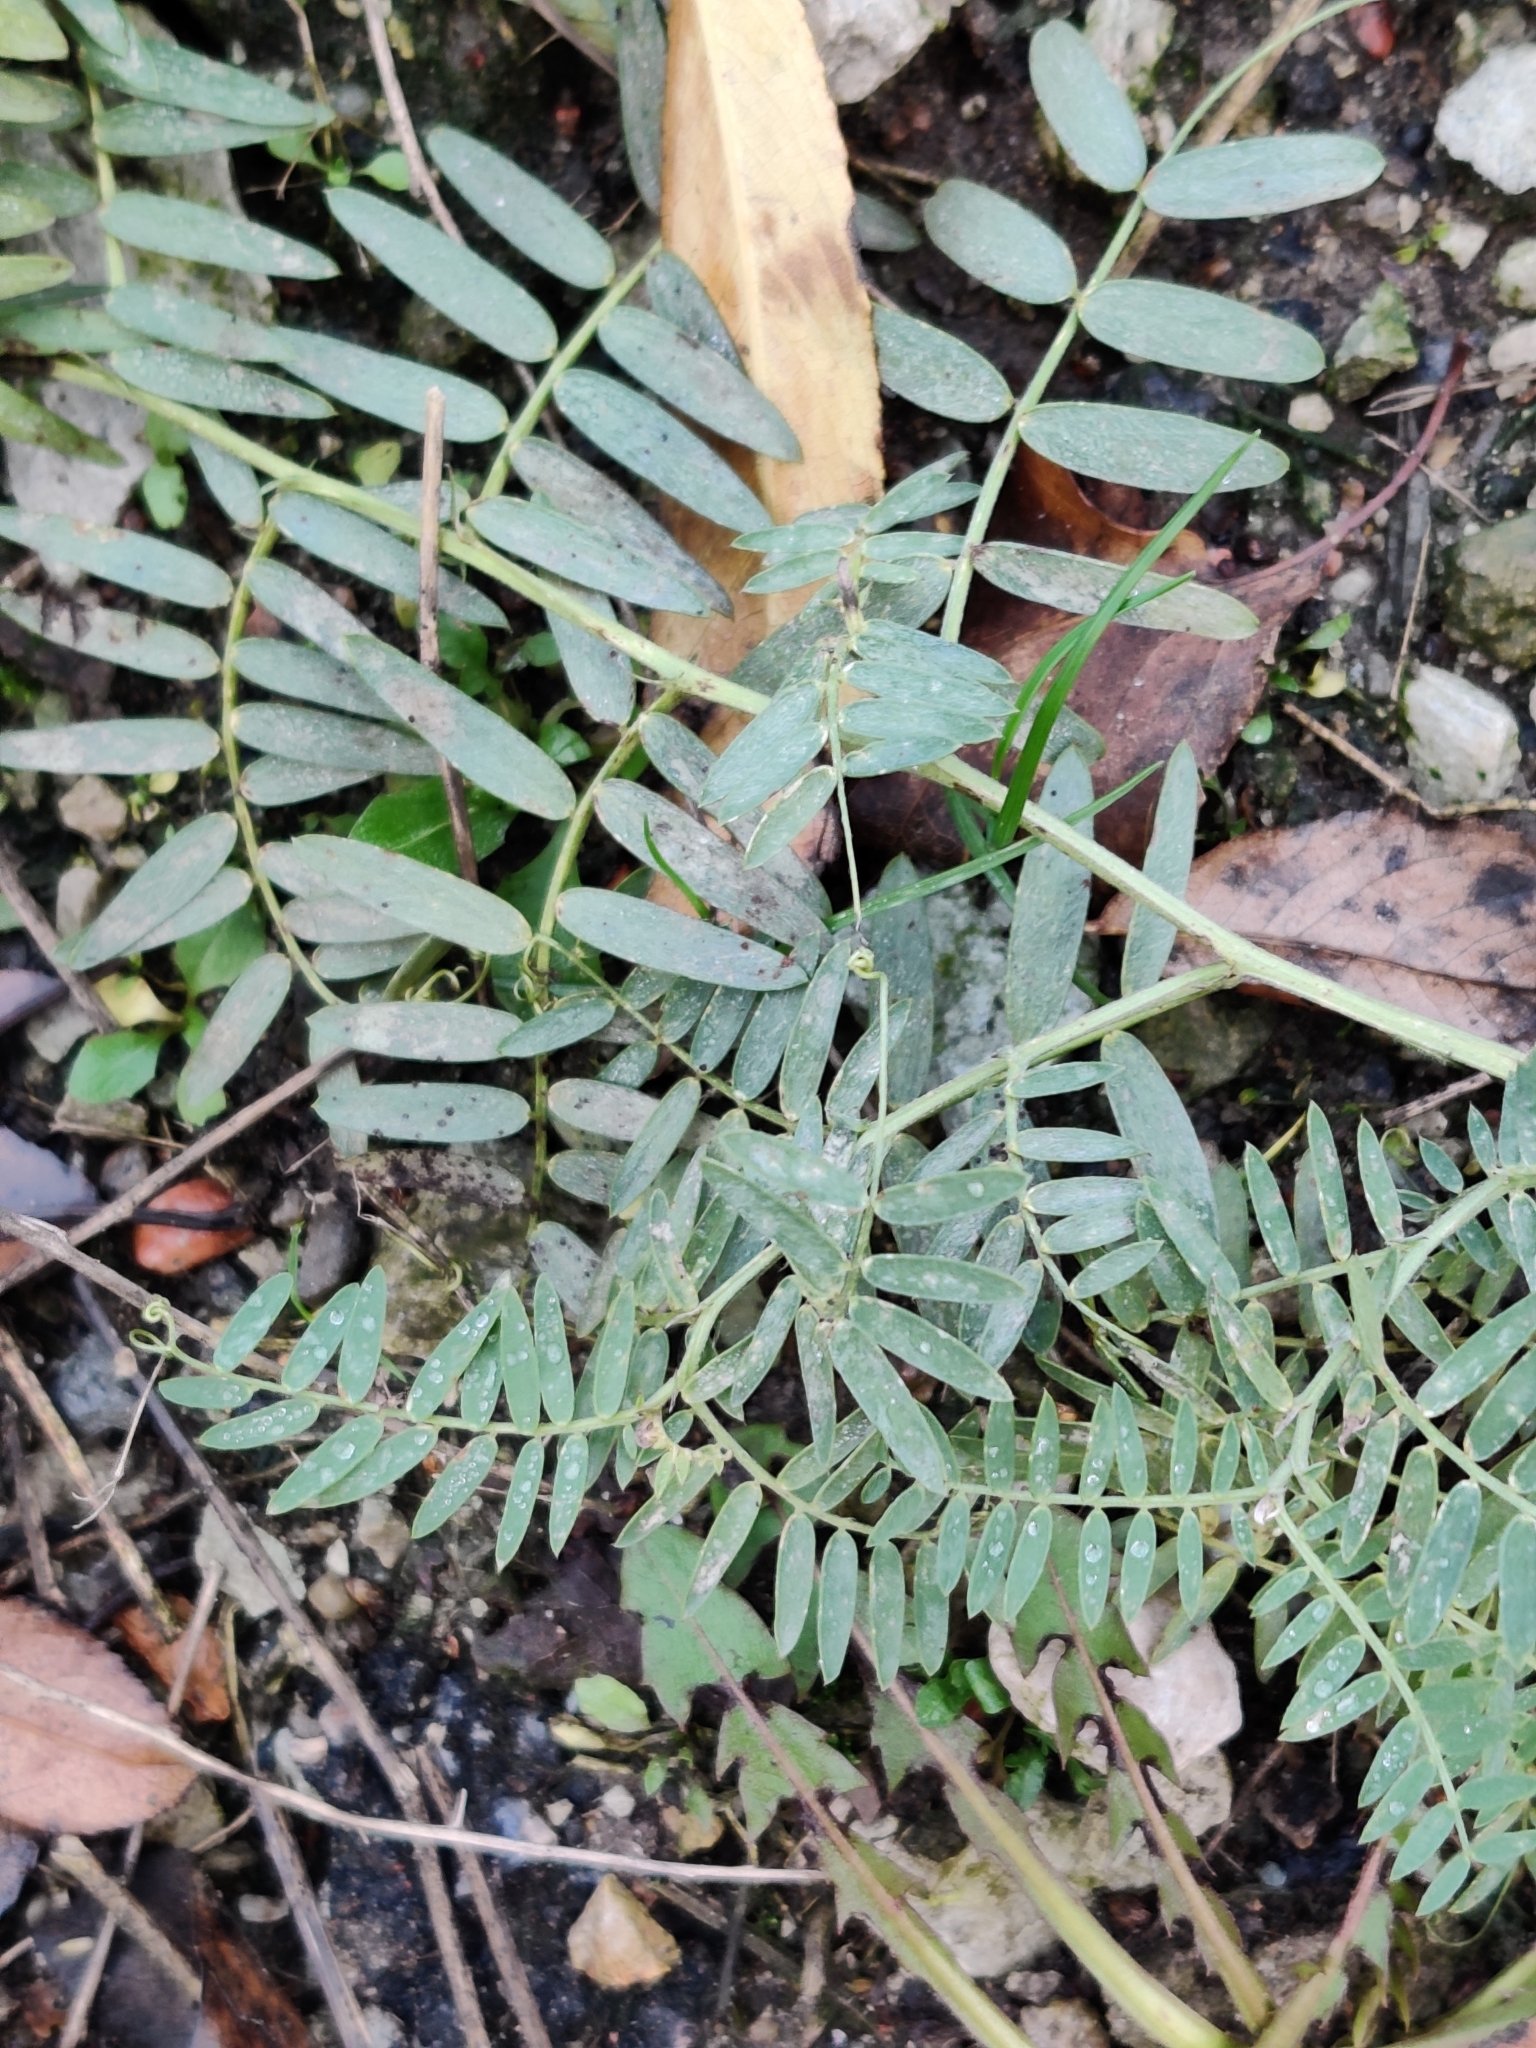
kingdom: Plantae
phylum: Tracheophyta
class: Magnoliopsida
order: Fabales
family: Fabaceae
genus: Vicia
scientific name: Vicia cracca
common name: Bird vetch
